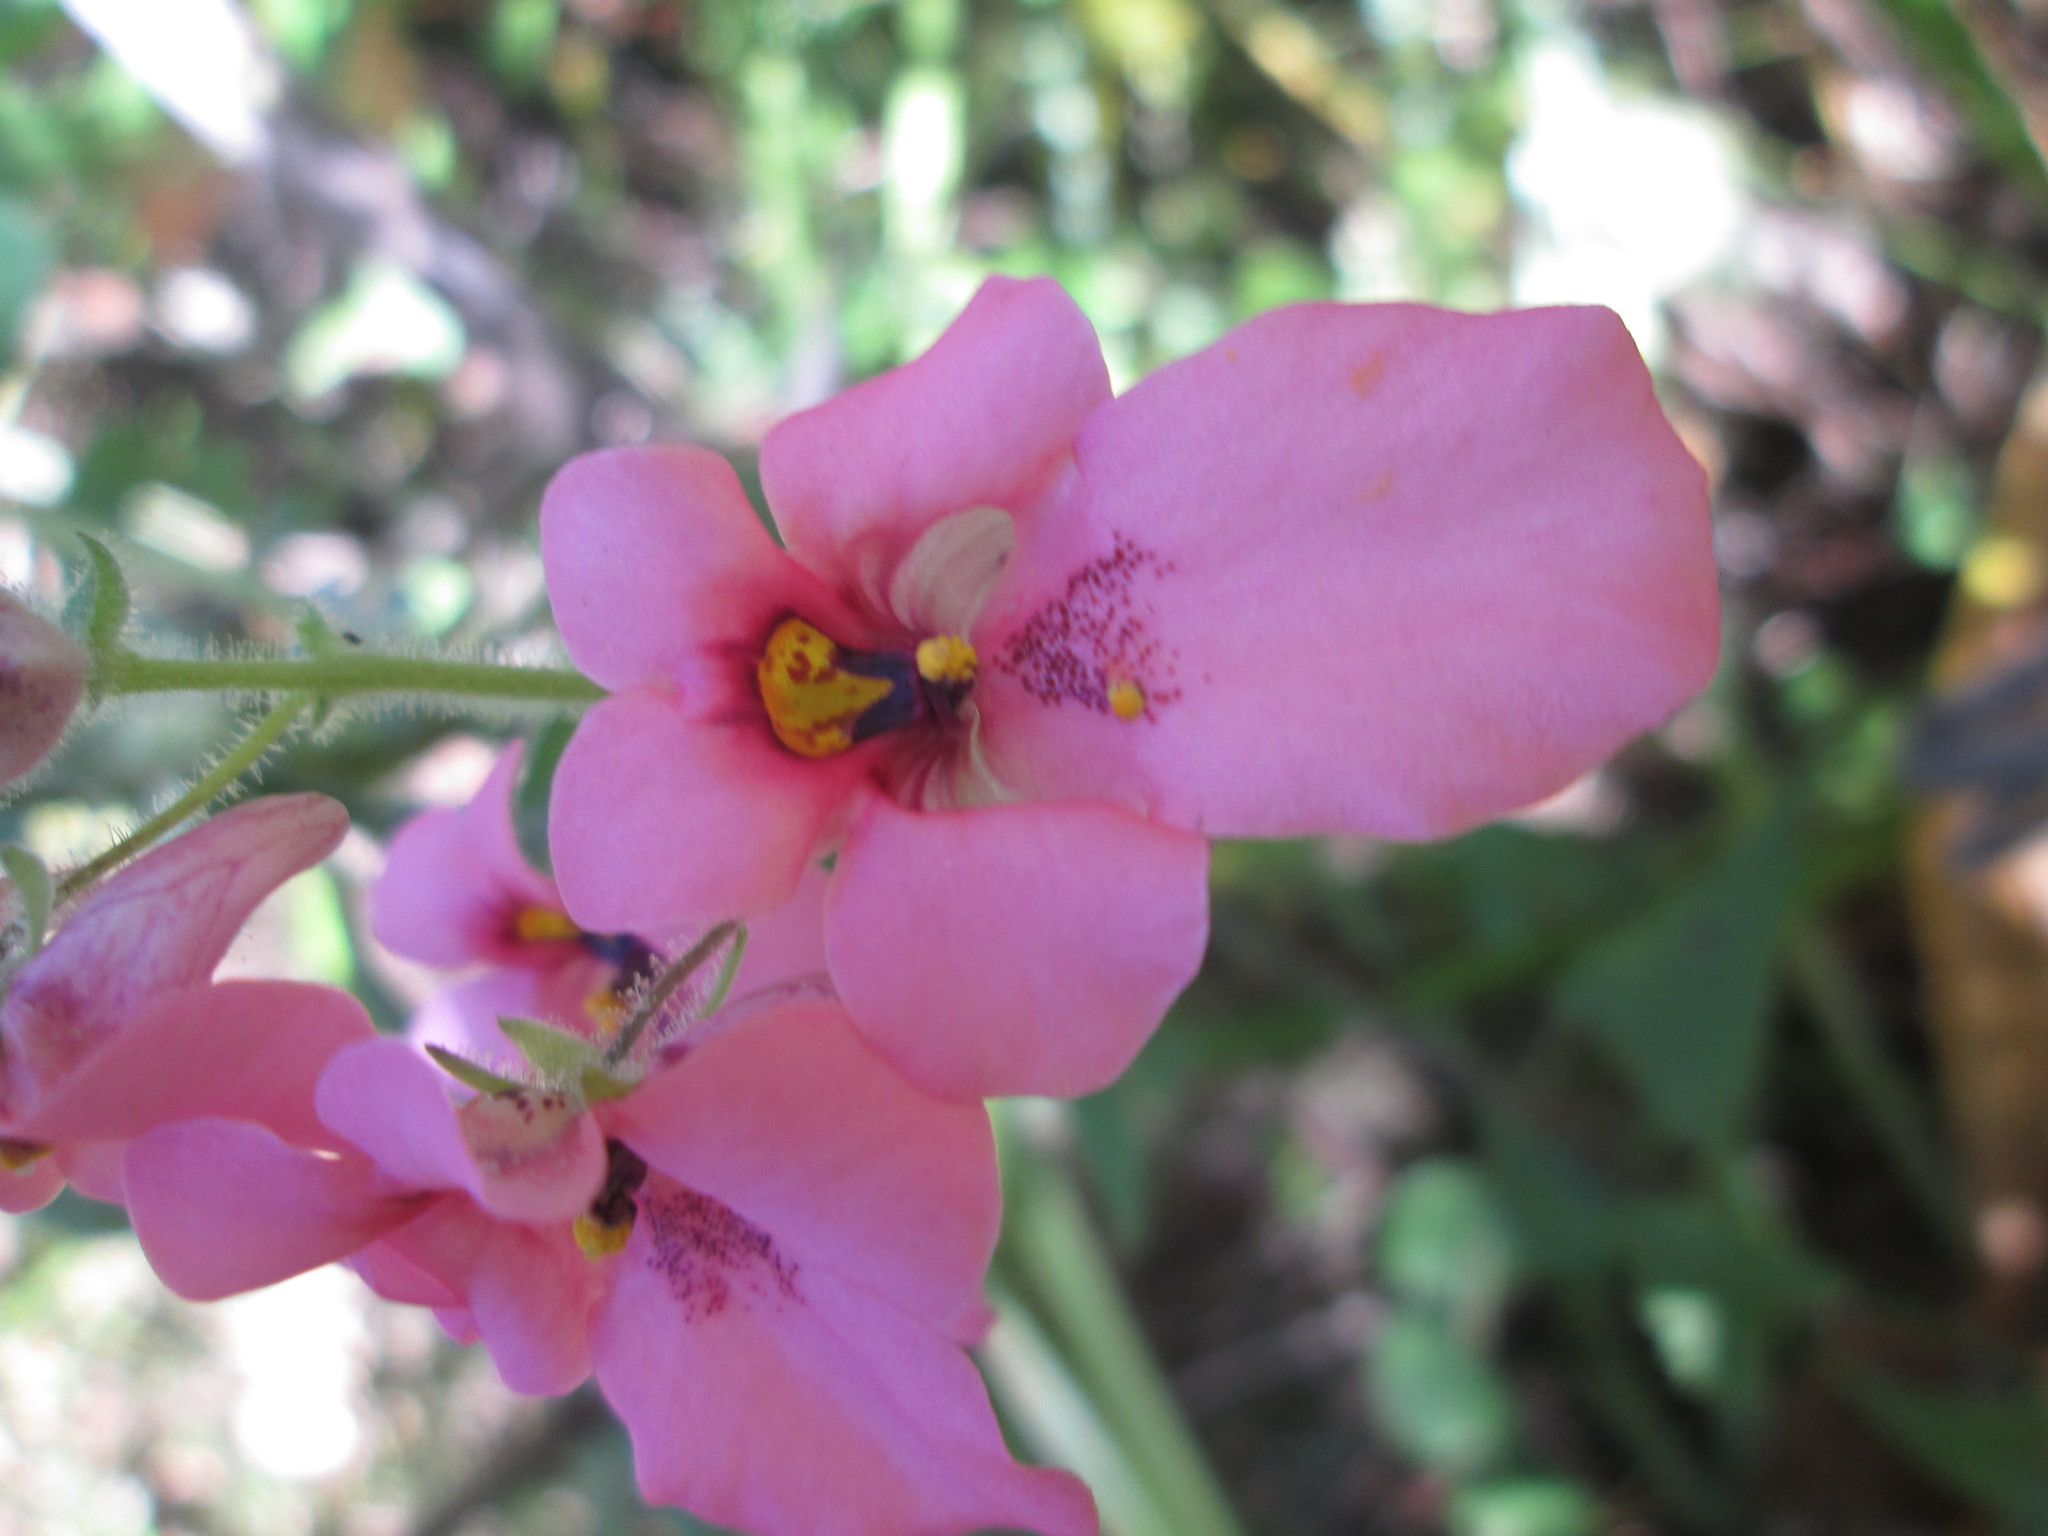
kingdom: Plantae
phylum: Tracheophyta
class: Magnoliopsida
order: Lamiales
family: Scrophulariaceae
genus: Diascia
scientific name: Diascia barberae
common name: Twinspur
